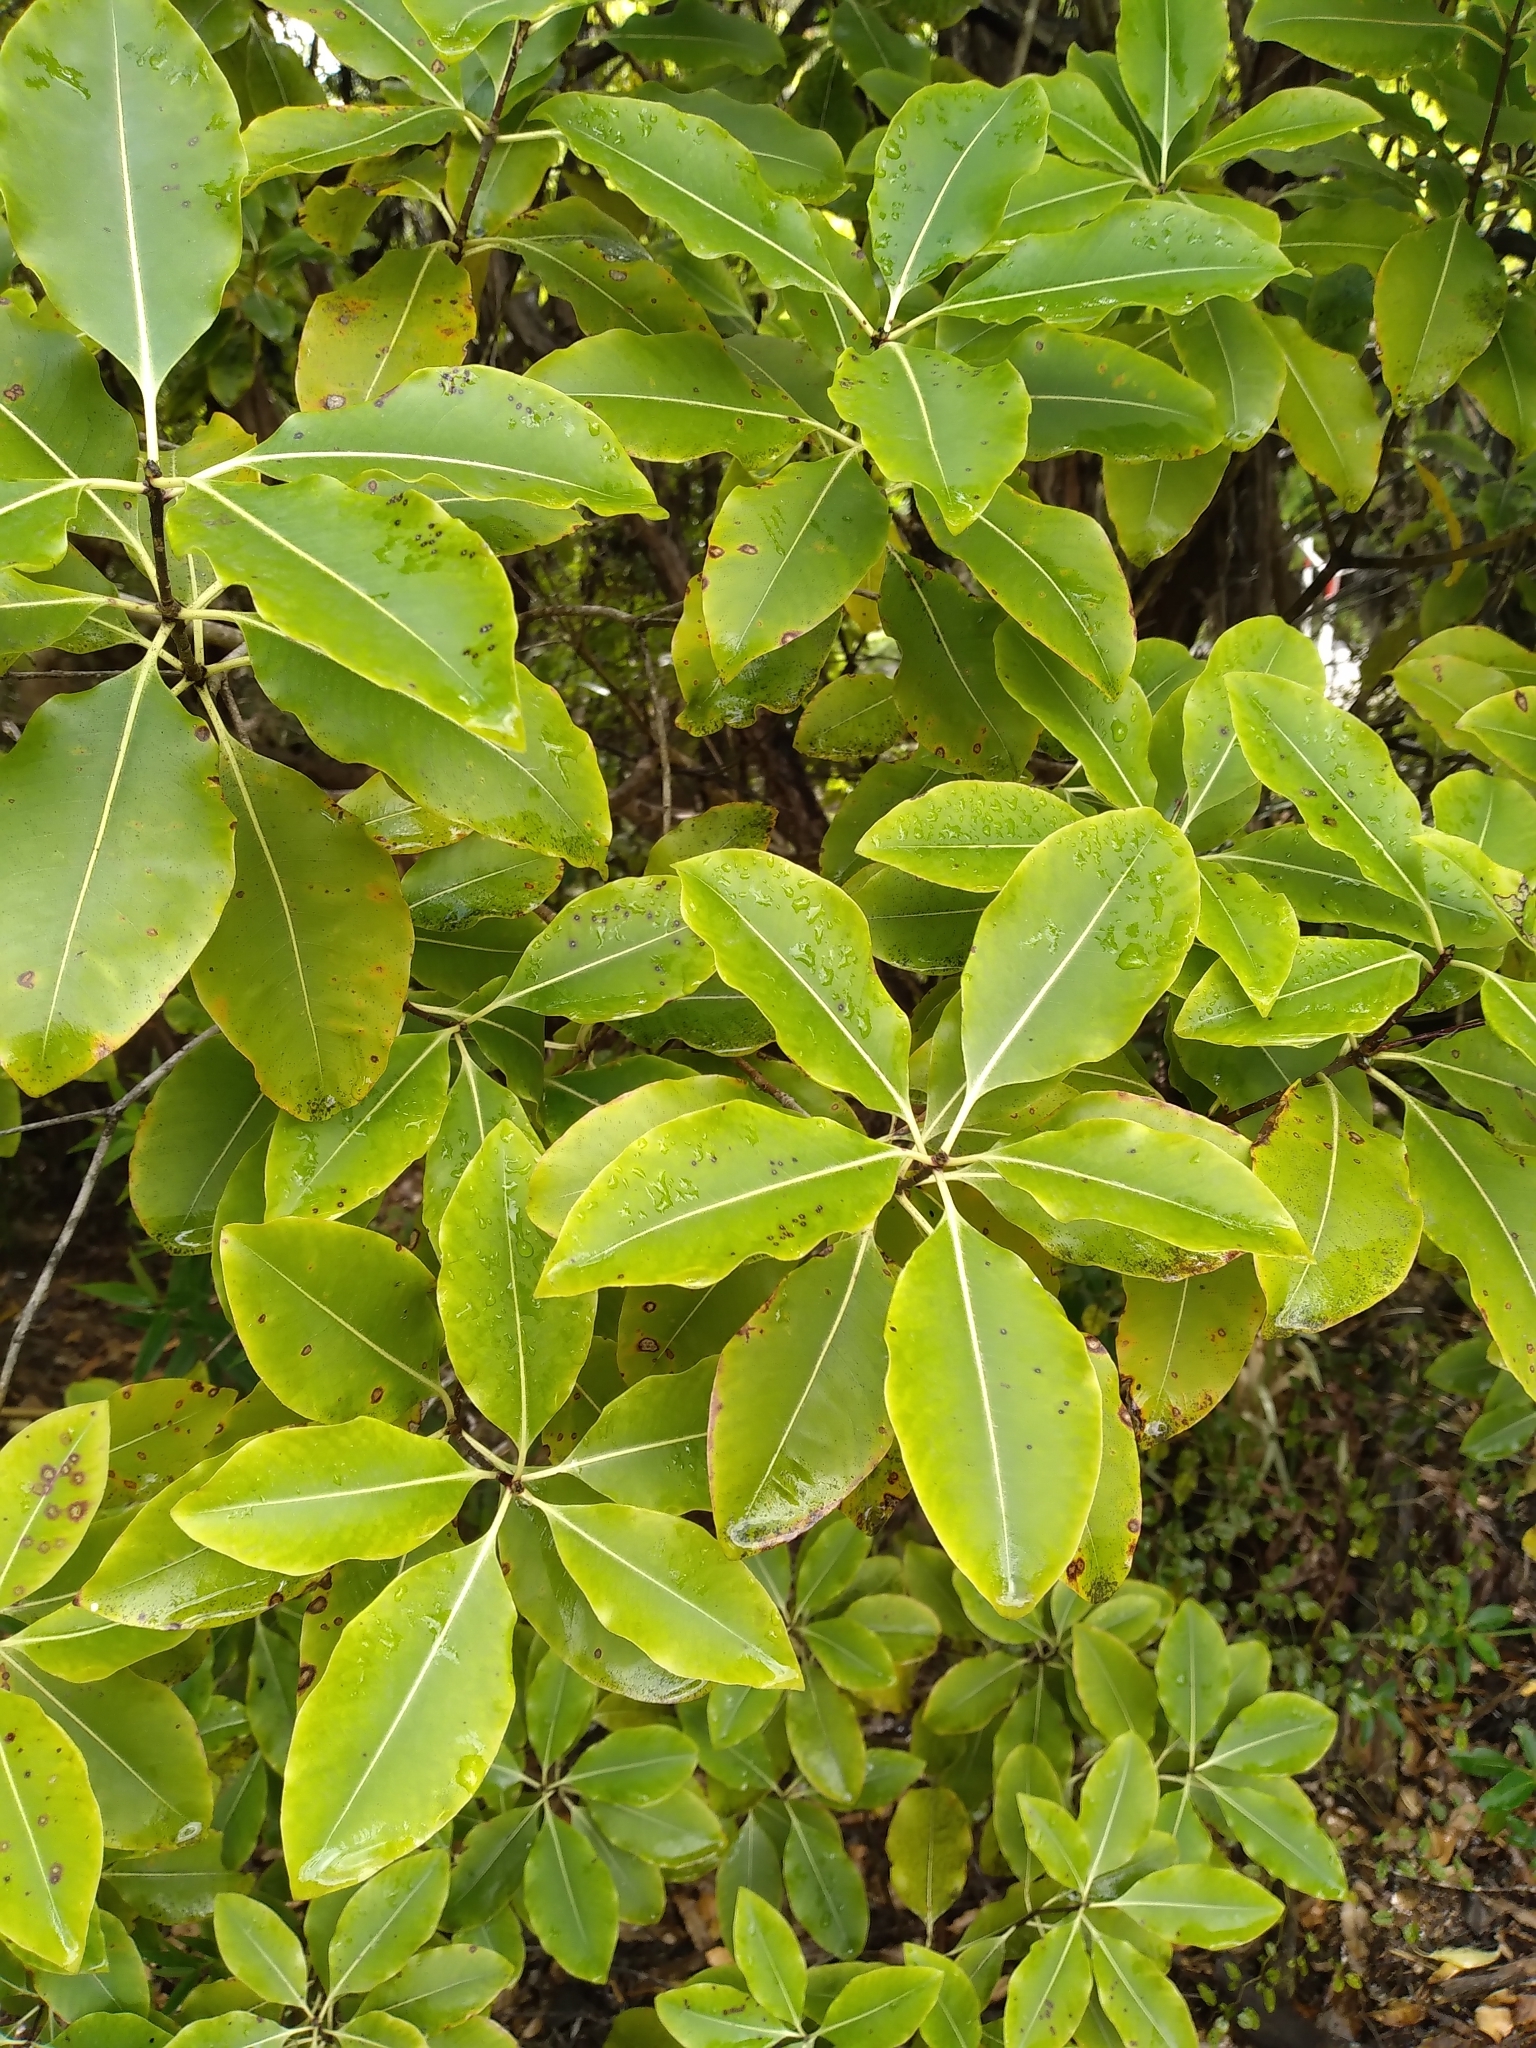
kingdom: Plantae
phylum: Tracheophyta
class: Magnoliopsida
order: Apiales
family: Pittosporaceae
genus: Pittosporum
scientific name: Pittosporum eugenioides
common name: Lemonwood
